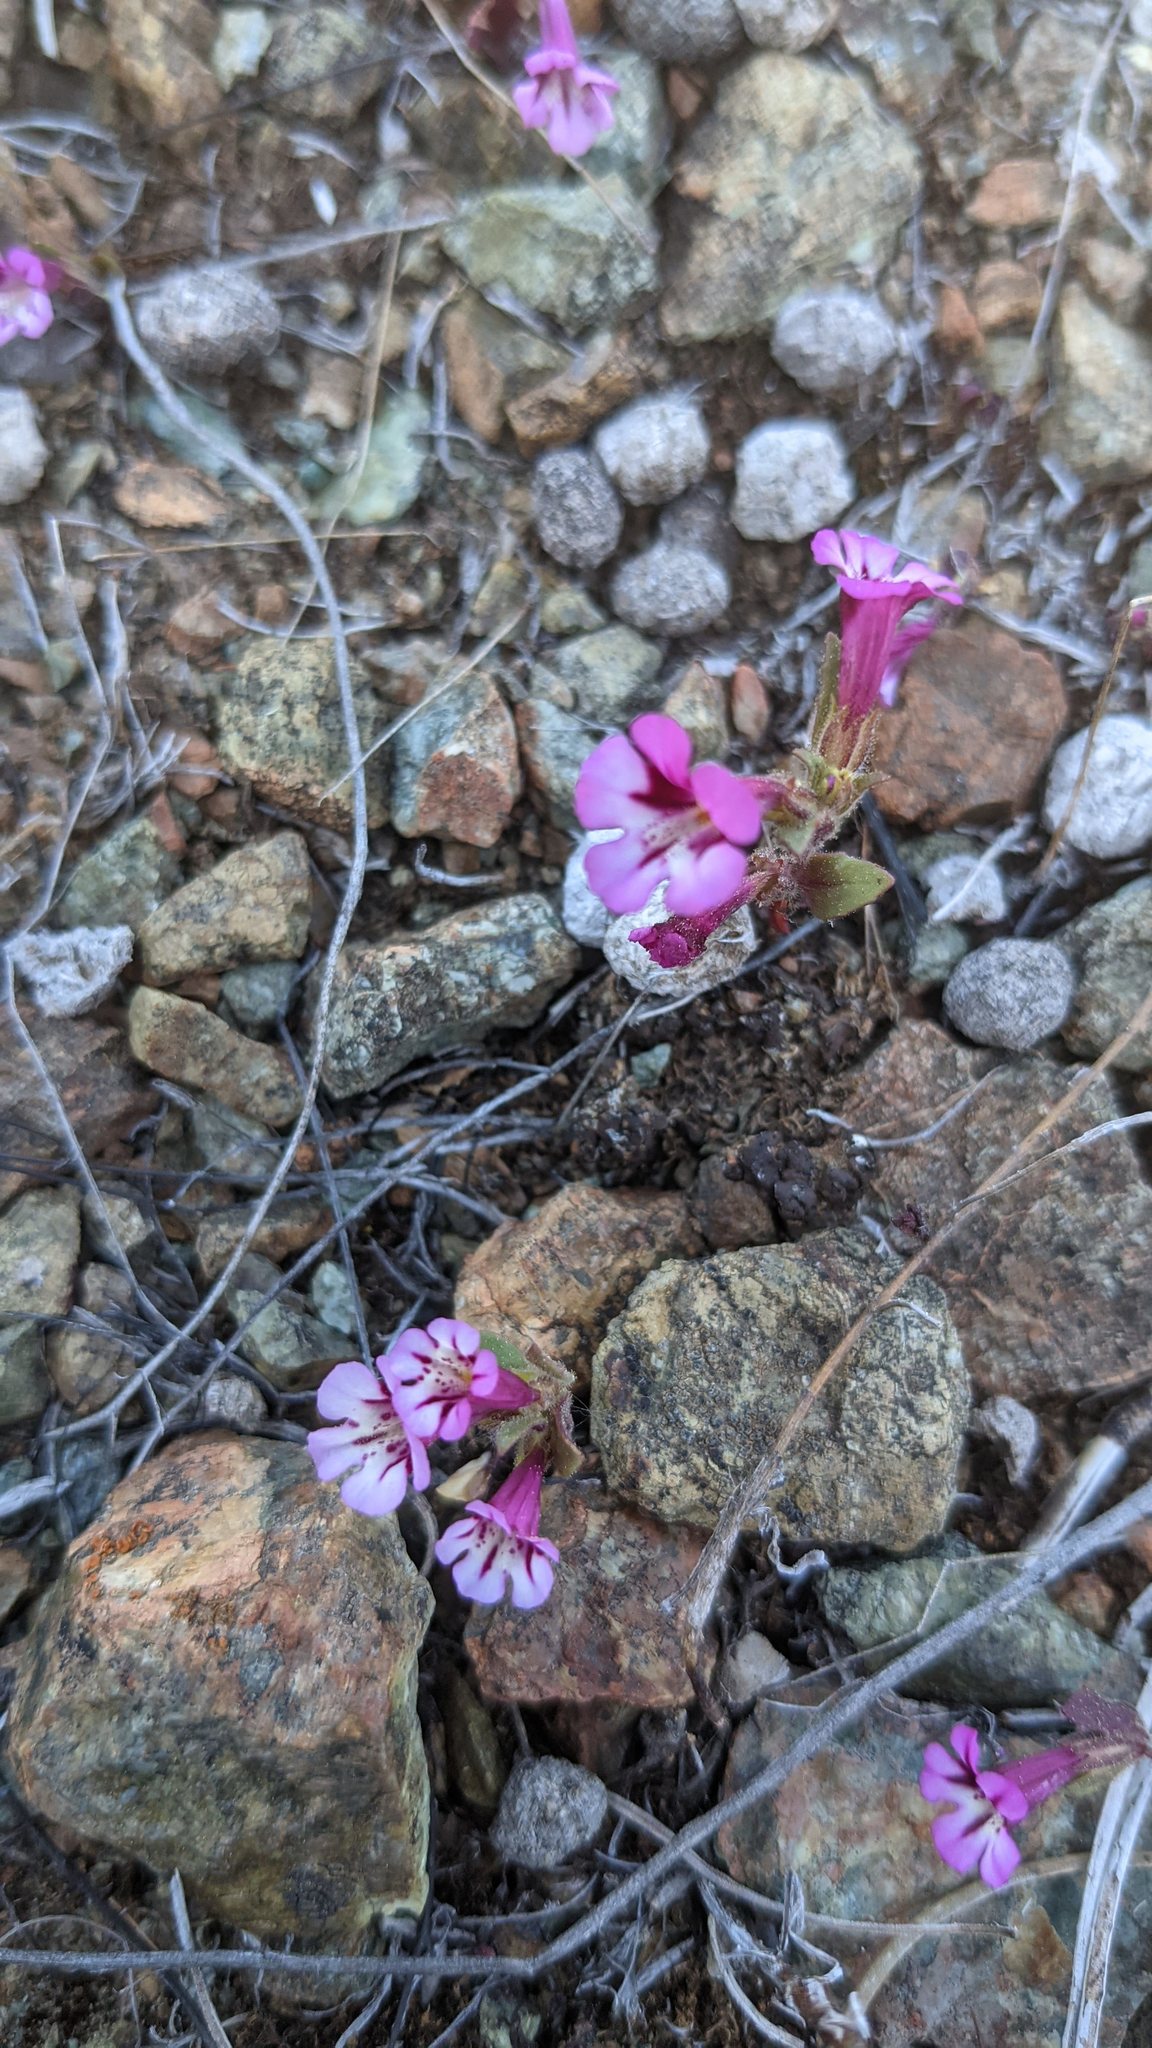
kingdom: Plantae
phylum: Tracheophyta
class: Magnoliopsida
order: Lamiales
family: Phrymaceae
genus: Diplacus
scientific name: Diplacus layneae
